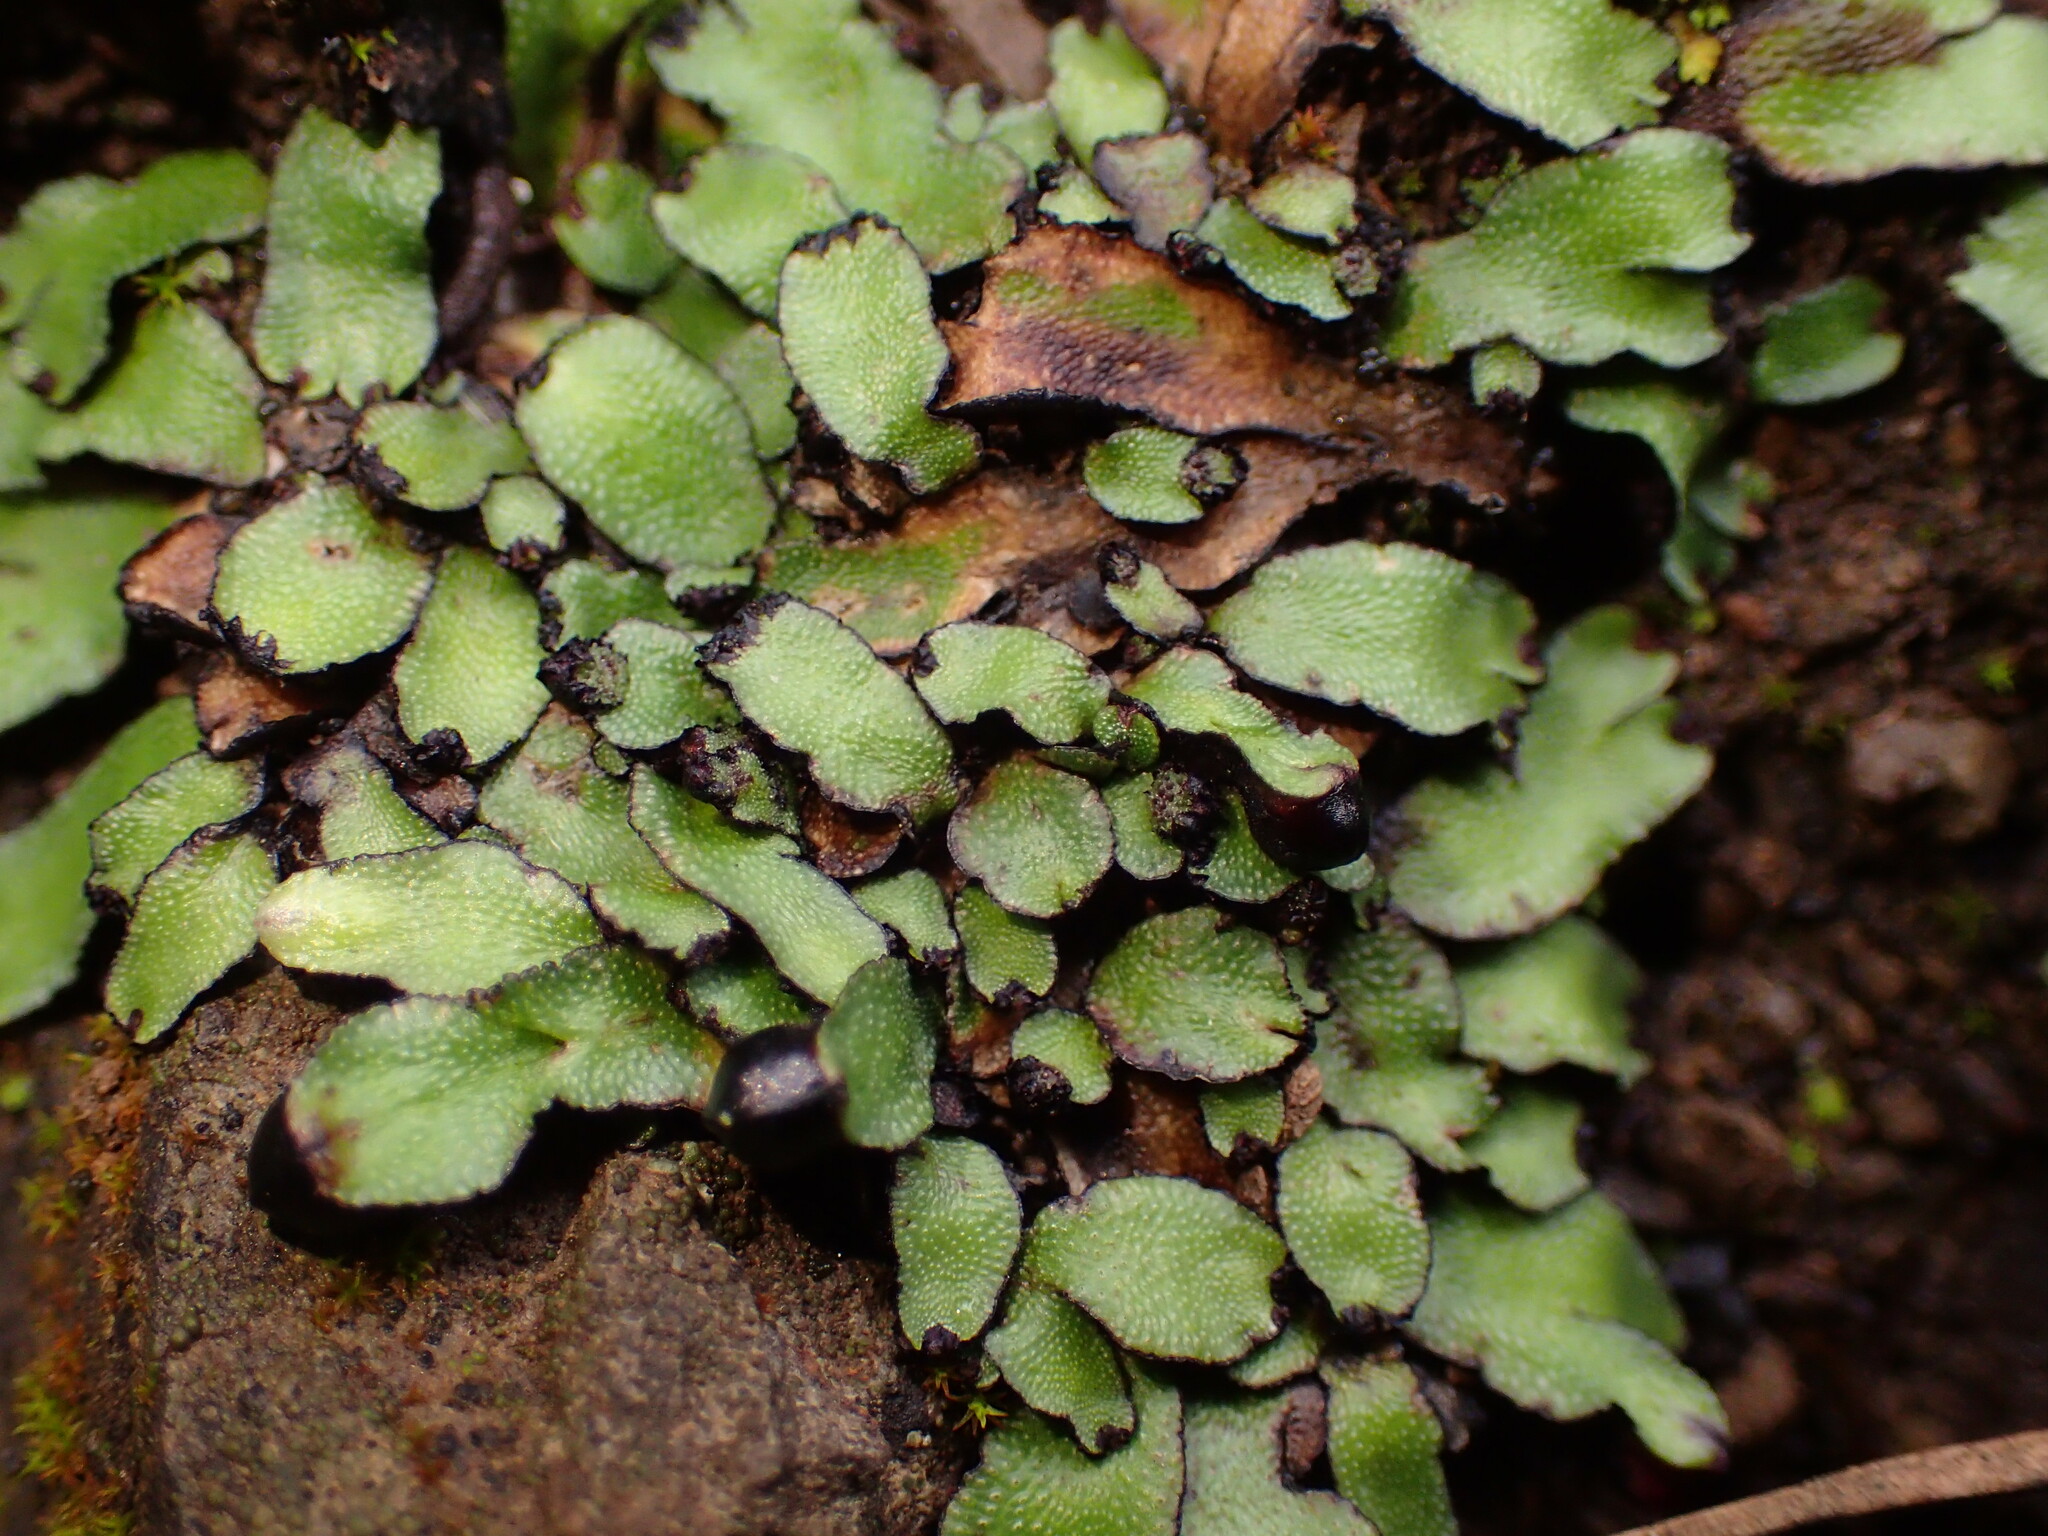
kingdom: Plantae
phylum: Marchantiophyta
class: Marchantiopsida
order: Marchantiales
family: Targioniaceae
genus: Targionia
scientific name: Targionia hypophylla
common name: Orobus-seed liverwort
